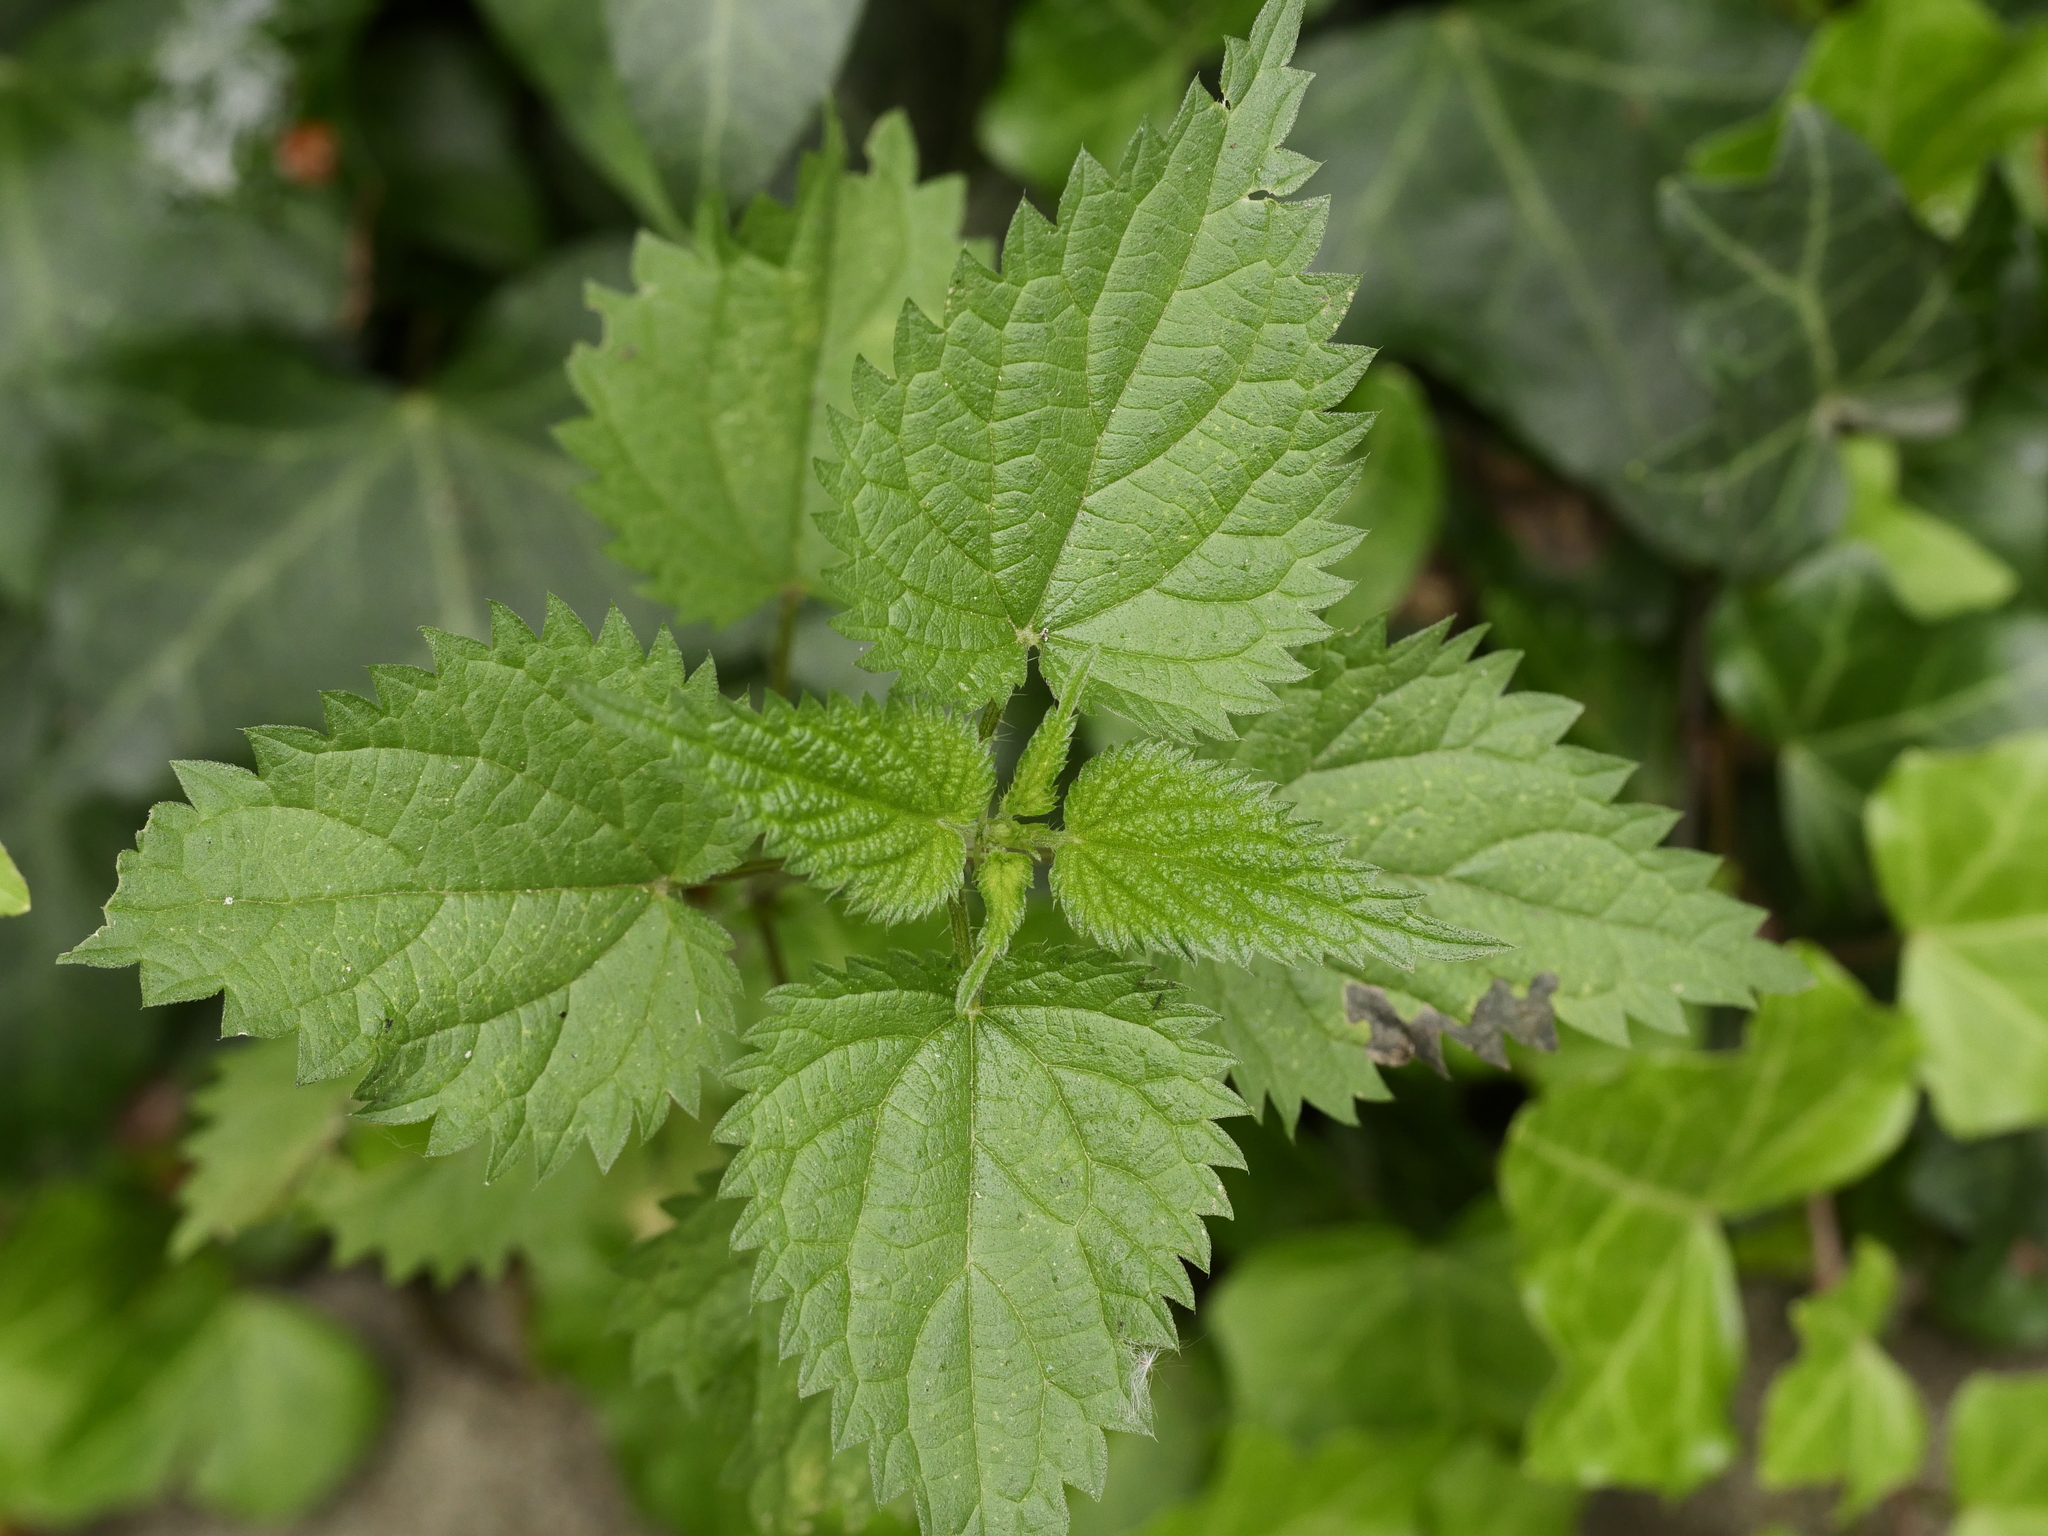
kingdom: Plantae
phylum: Tracheophyta
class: Magnoliopsida
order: Rosales
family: Urticaceae
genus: Urtica
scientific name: Urtica dioica
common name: Common nettle
